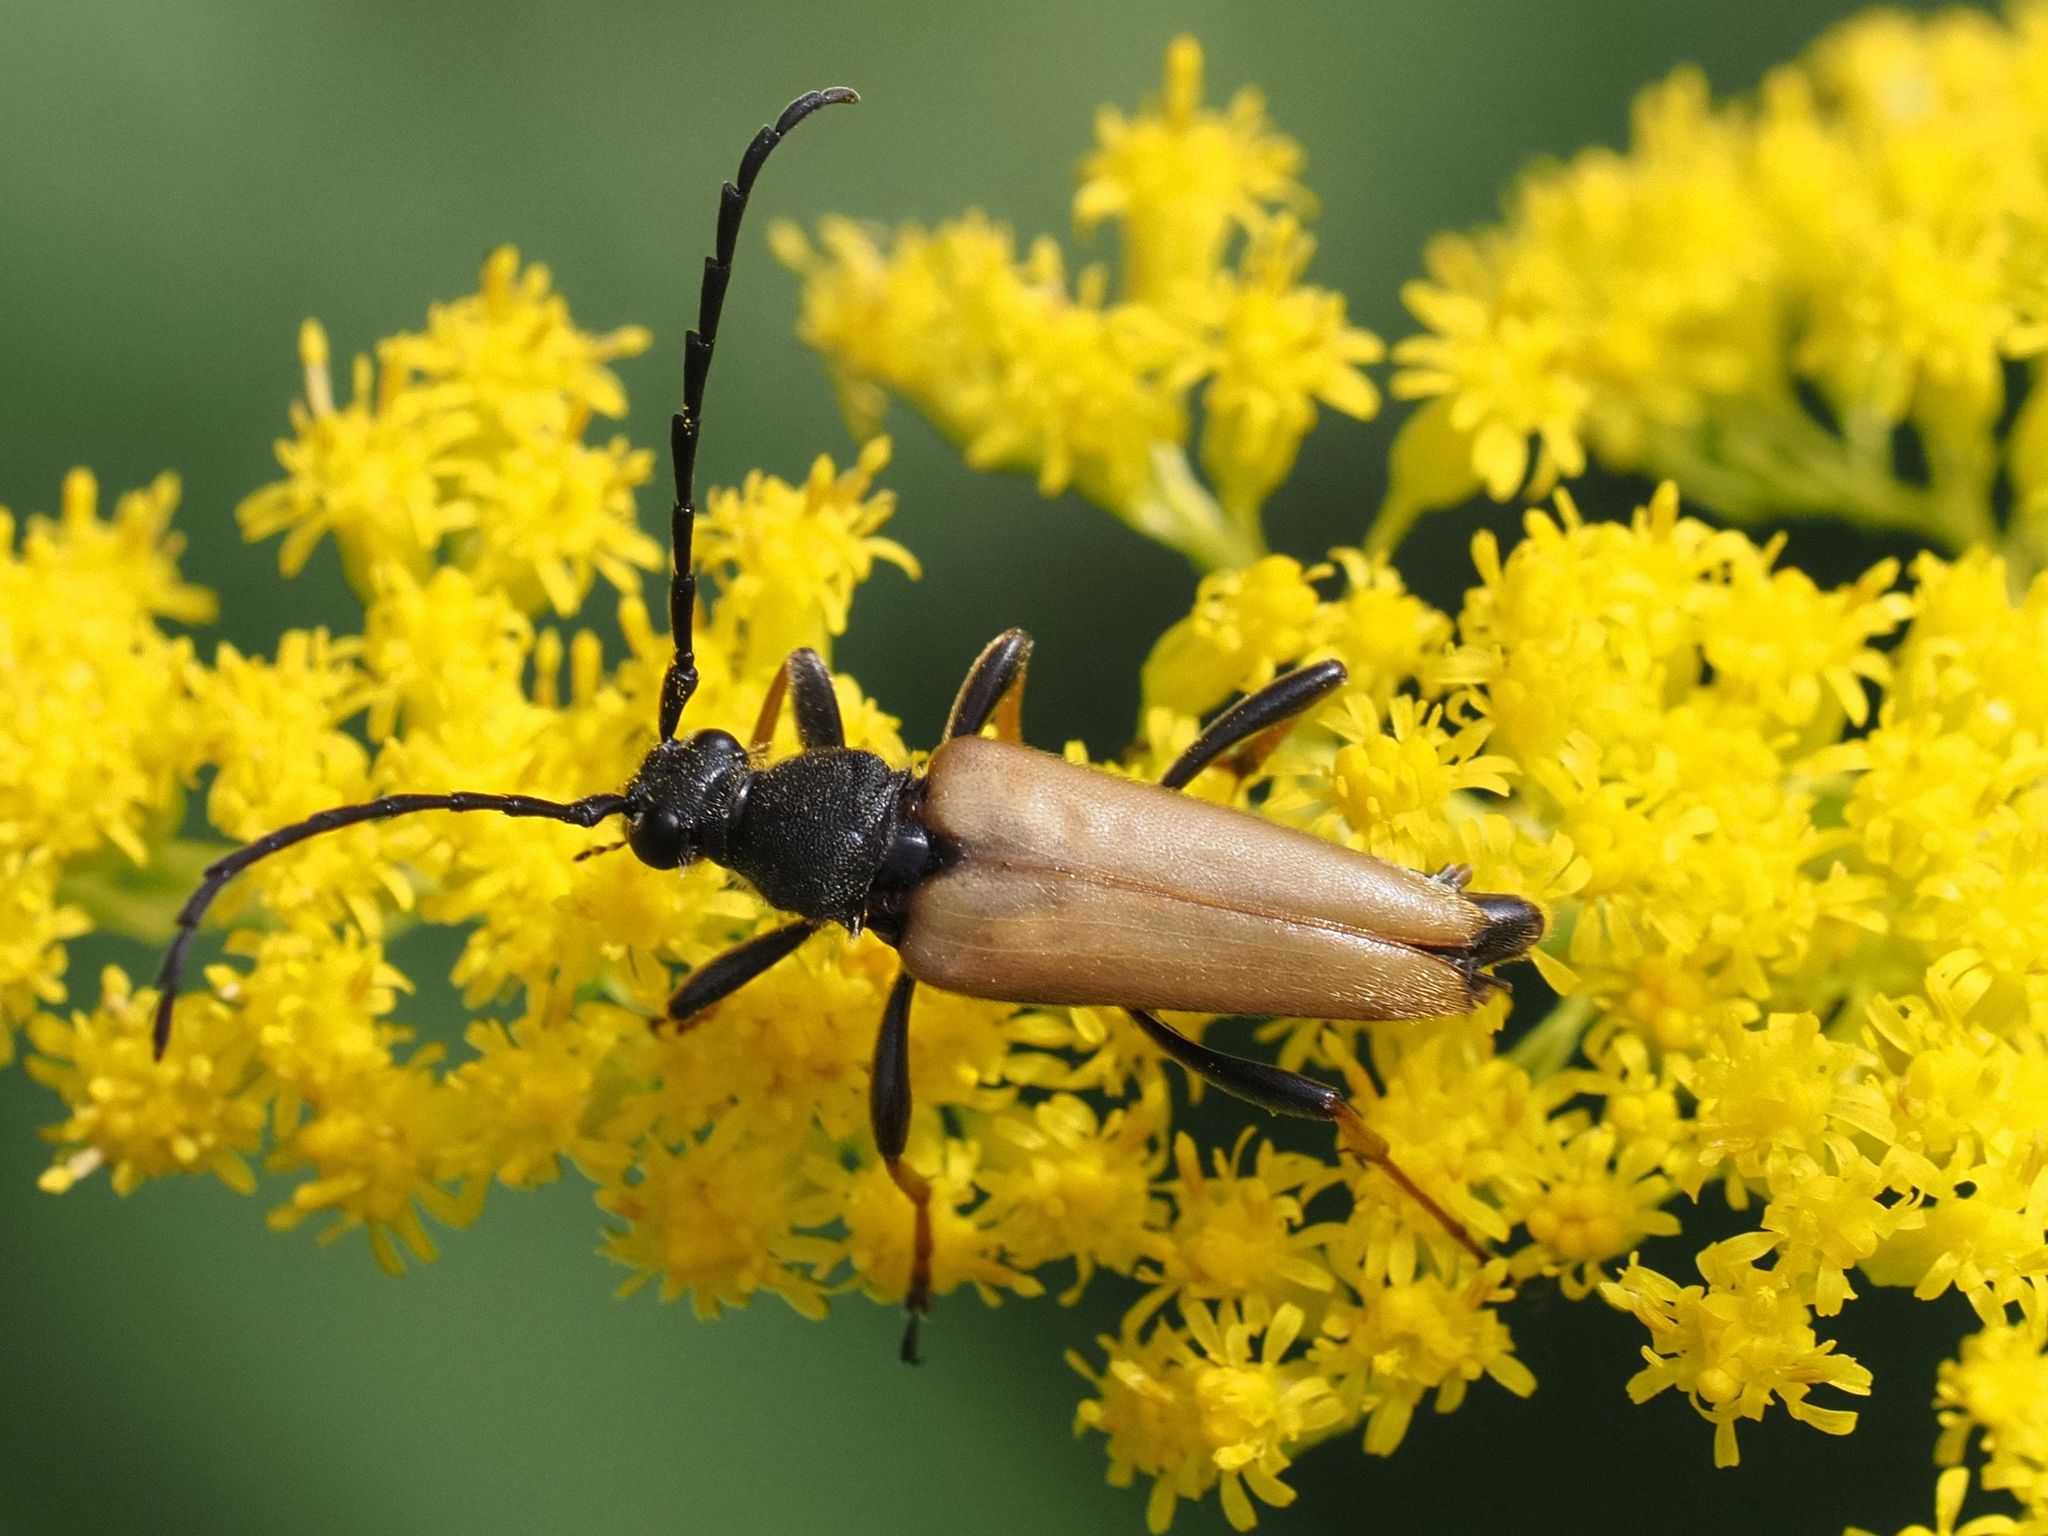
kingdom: Animalia
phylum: Arthropoda
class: Insecta
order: Coleoptera
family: Cerambycidae
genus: Stictoleptura
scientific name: Stictoleptura rubra
